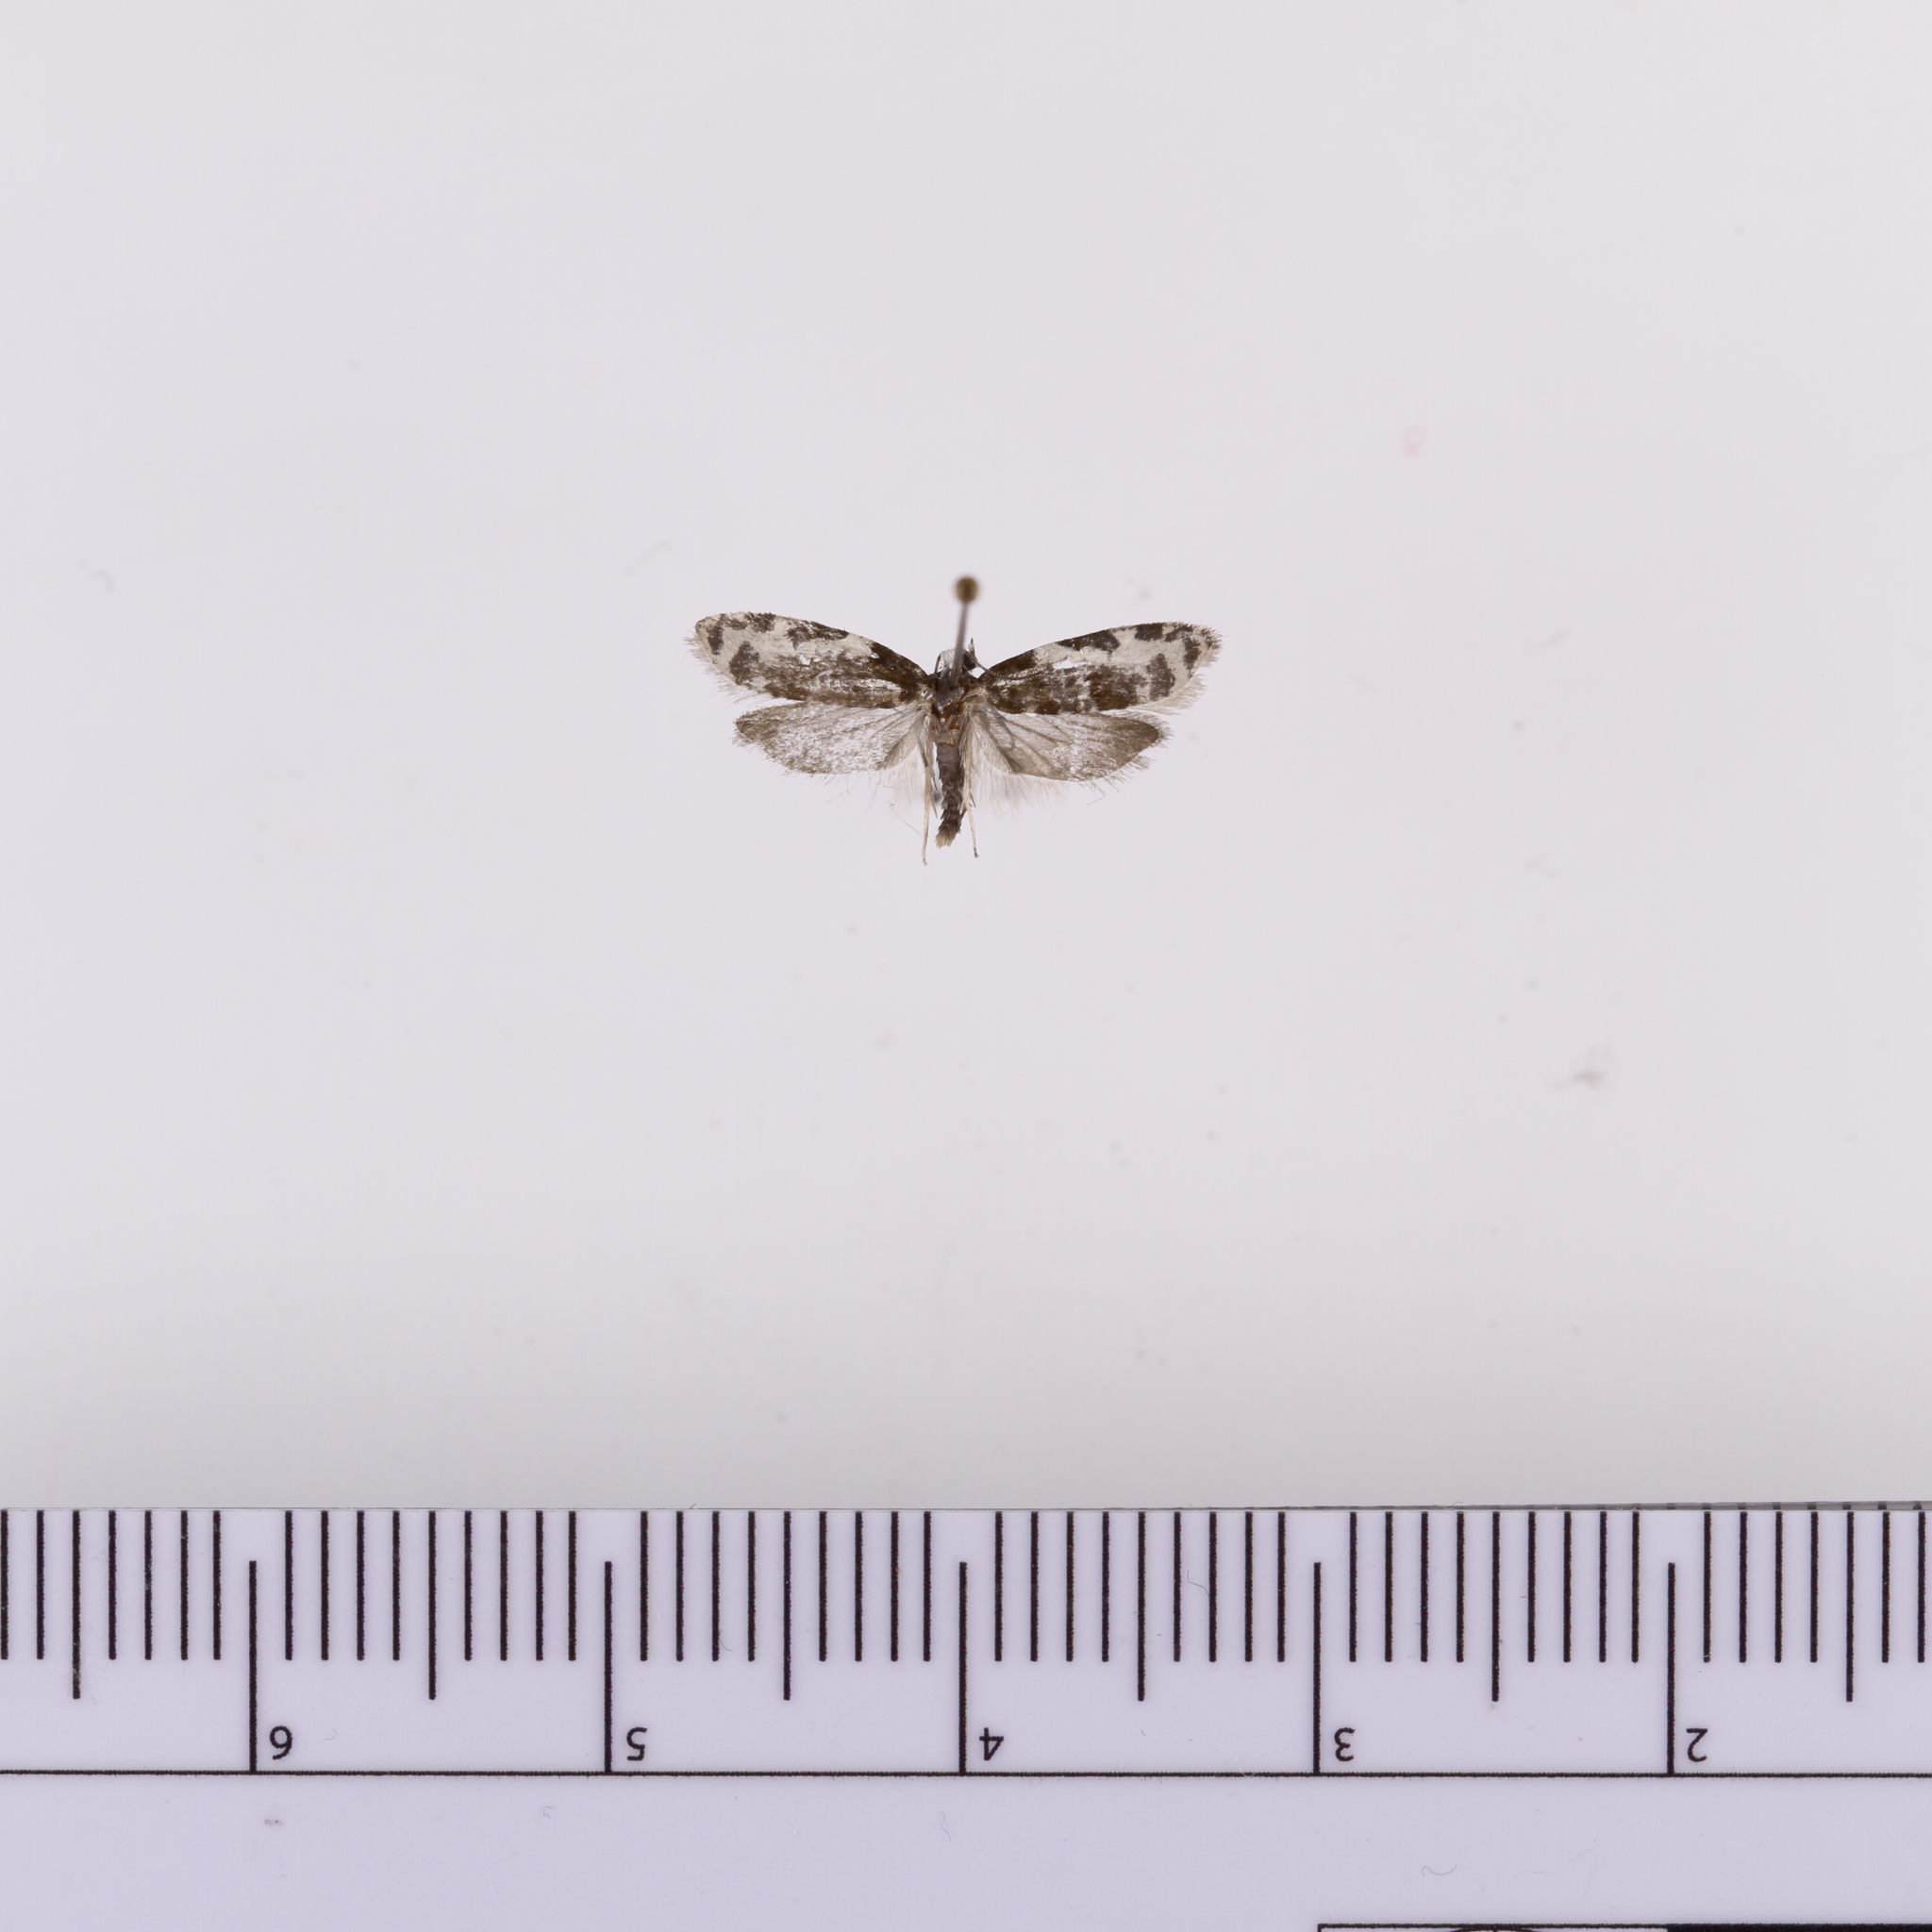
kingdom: Animalia
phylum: Arthropoda
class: Insecta
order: Lepidoptera
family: Tortricidae
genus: Prothelymna
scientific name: Prothelymna niphostrota
